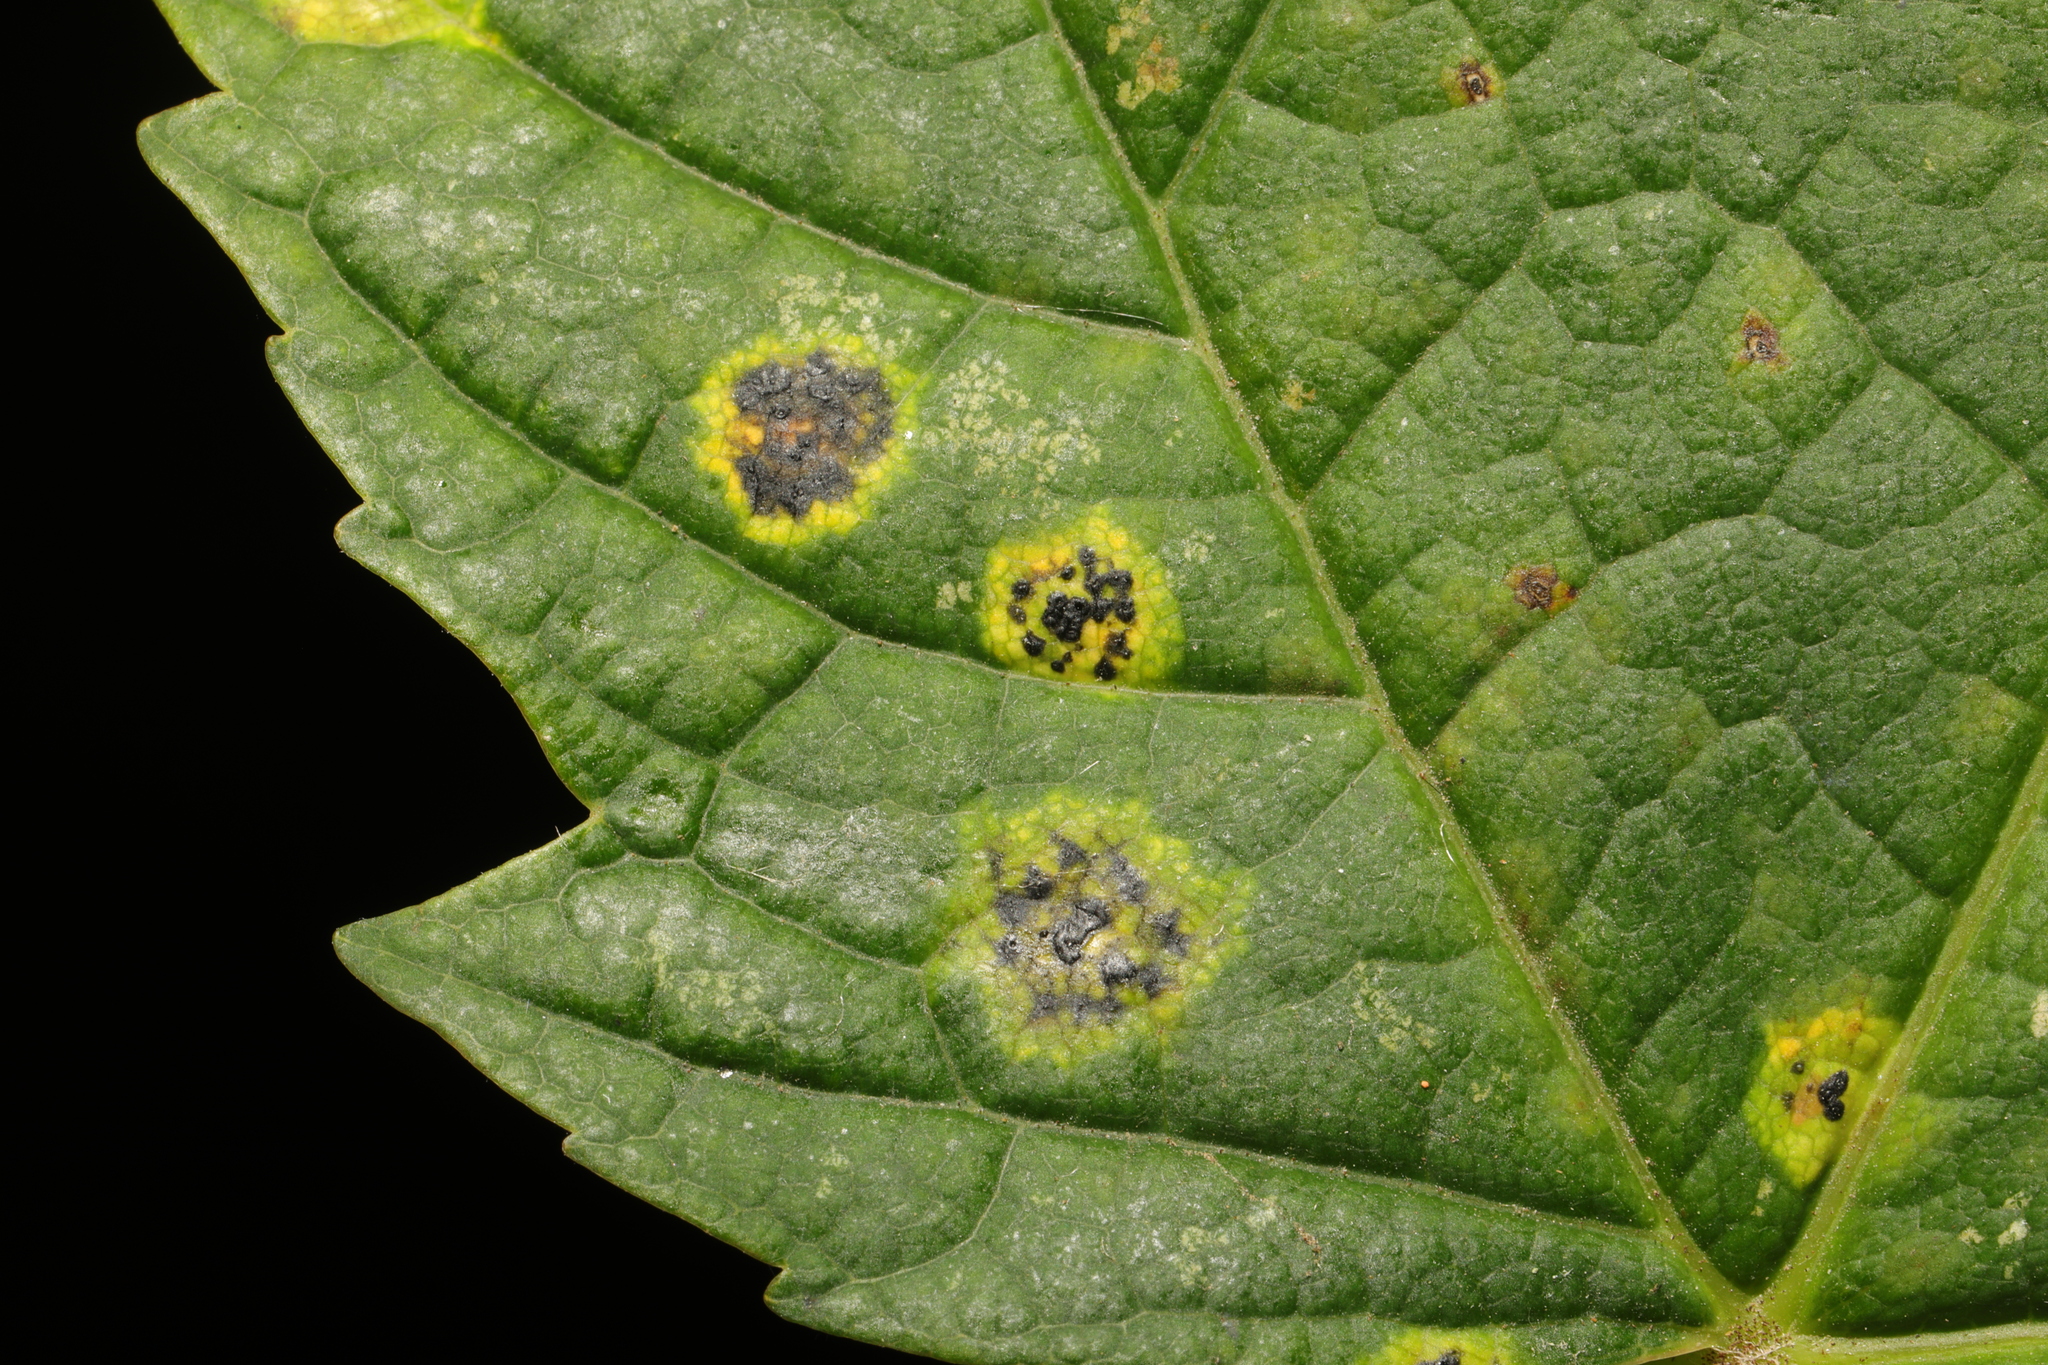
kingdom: Fungi
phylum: Ascomycota
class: Leotiomycetes
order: Rhytismatales
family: Rhytismataceae
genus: Rhytisma
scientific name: Rhytisma acerinum
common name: European tar spot
